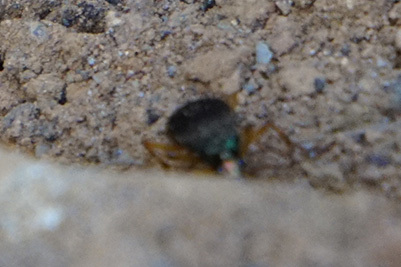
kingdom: Animalia
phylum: Arthropoda
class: Insecta
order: Coleoptera
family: Carabidae
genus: Chlaenius
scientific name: Chlaenius aestivus
